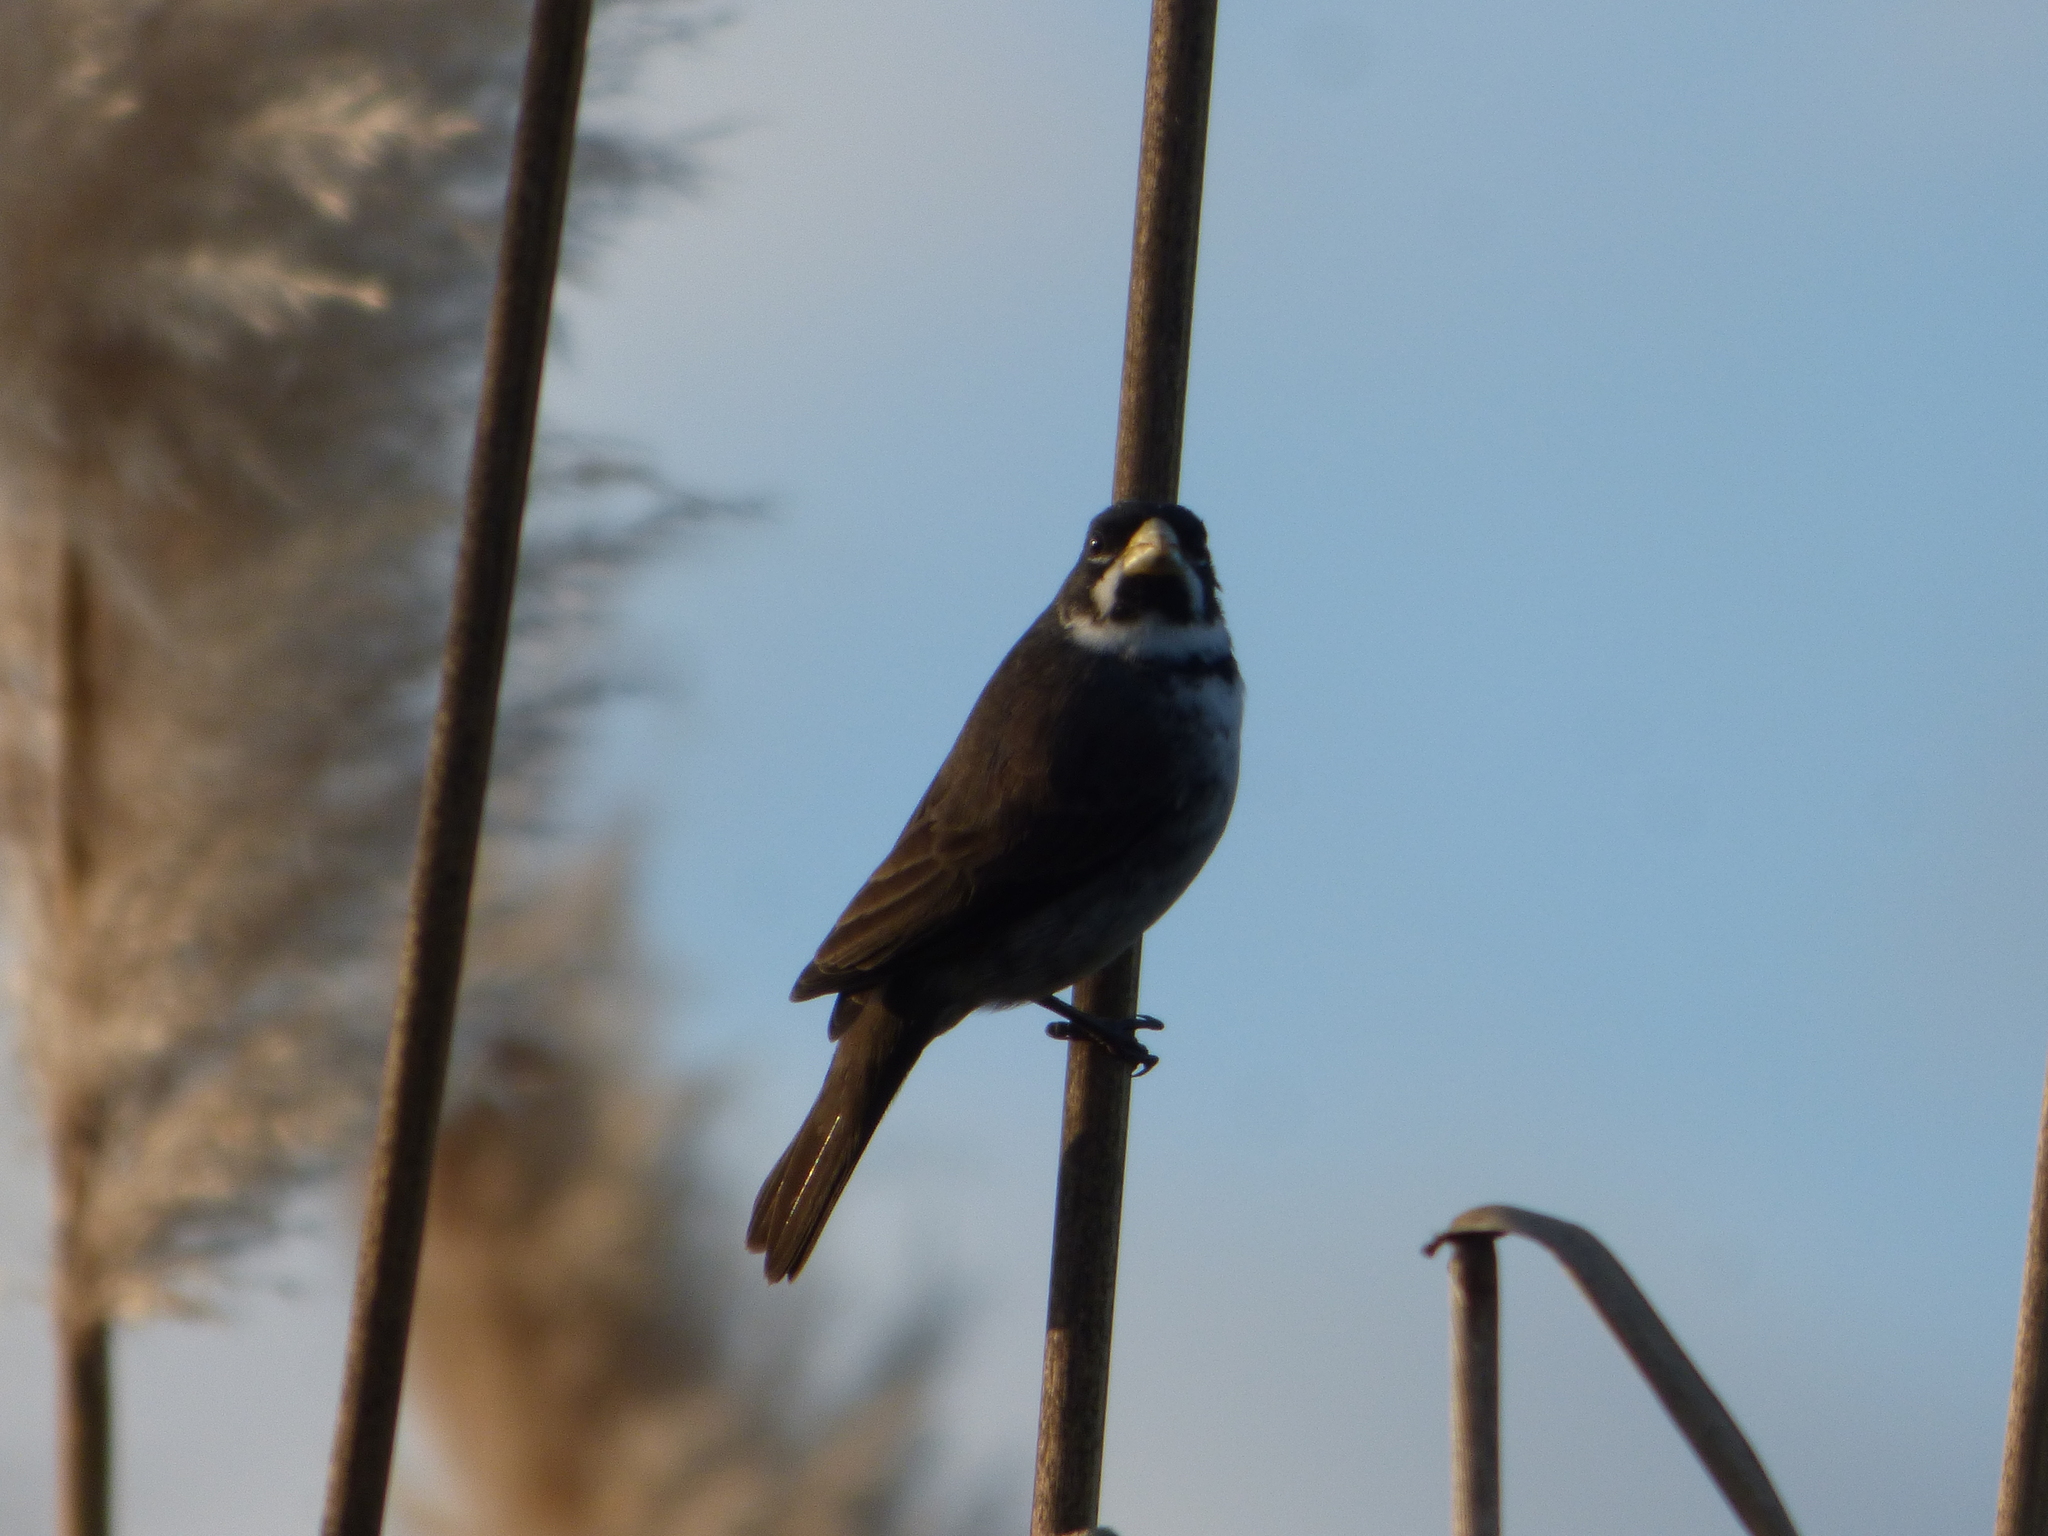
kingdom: Animalia
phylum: Chordata
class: Aves
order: Passeriformes
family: Thraupidae
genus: Sporophila
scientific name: Sporophila caerulescens
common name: Double-collared seedeater
